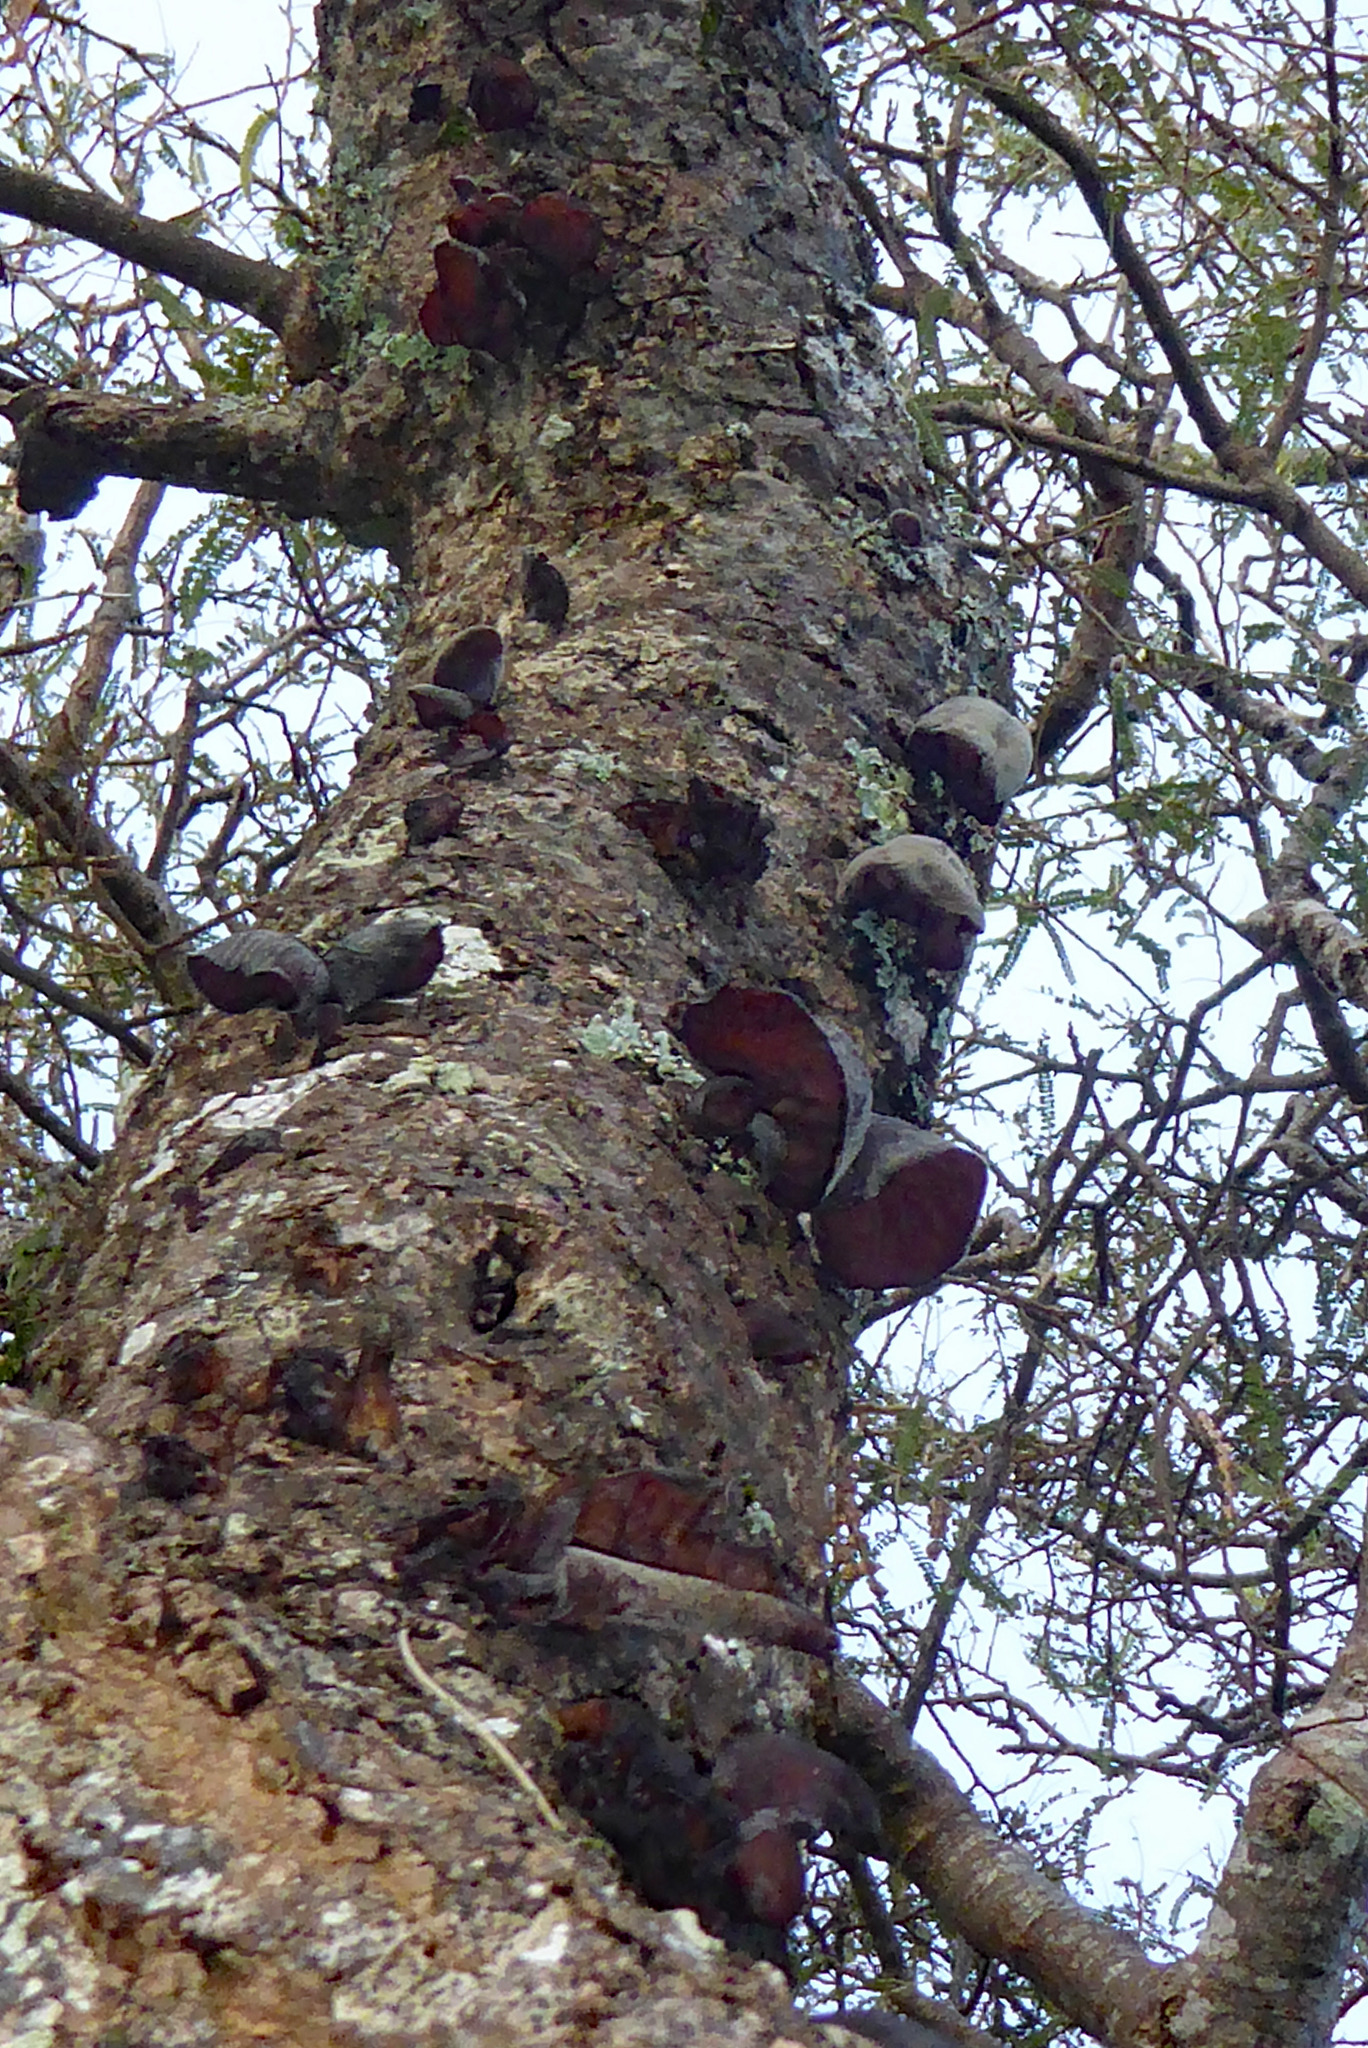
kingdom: Fungi
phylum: Basidiomycota
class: Agaricomycetes
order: Auriculariales
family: Auriculariaceae
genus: Auricularia
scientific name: Auricularia cornea
